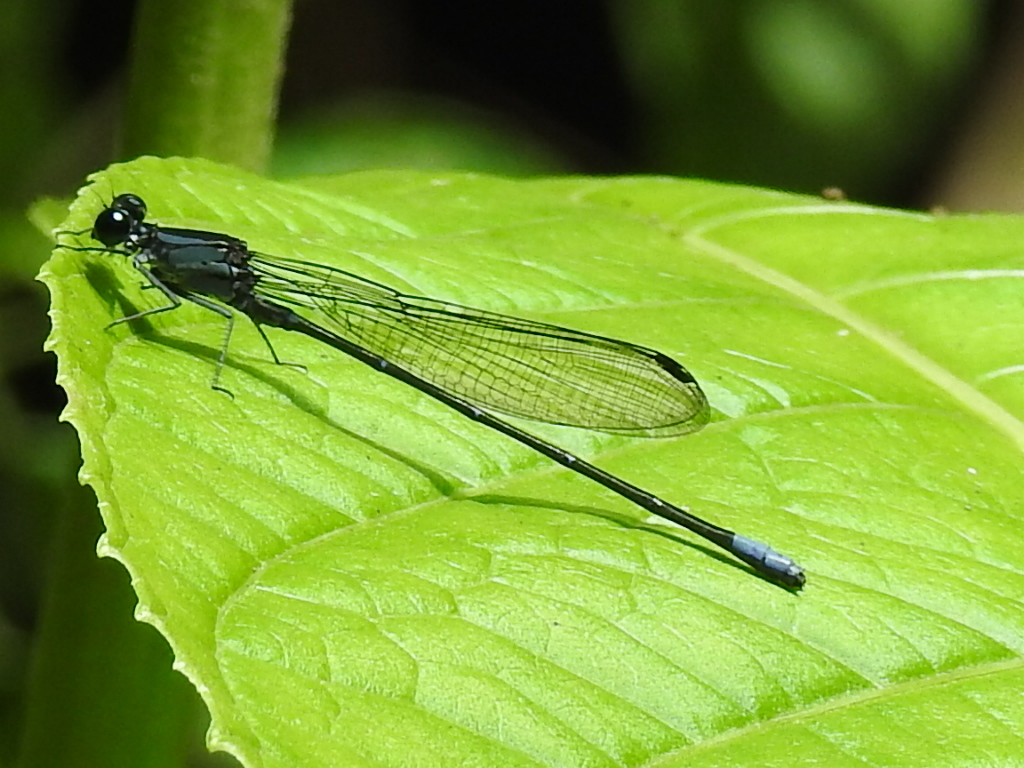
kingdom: Animalia
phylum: Arthropoda
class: Insecta
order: Odonata
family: Coenagrionidae
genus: Argia
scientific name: Argia ulmeca
